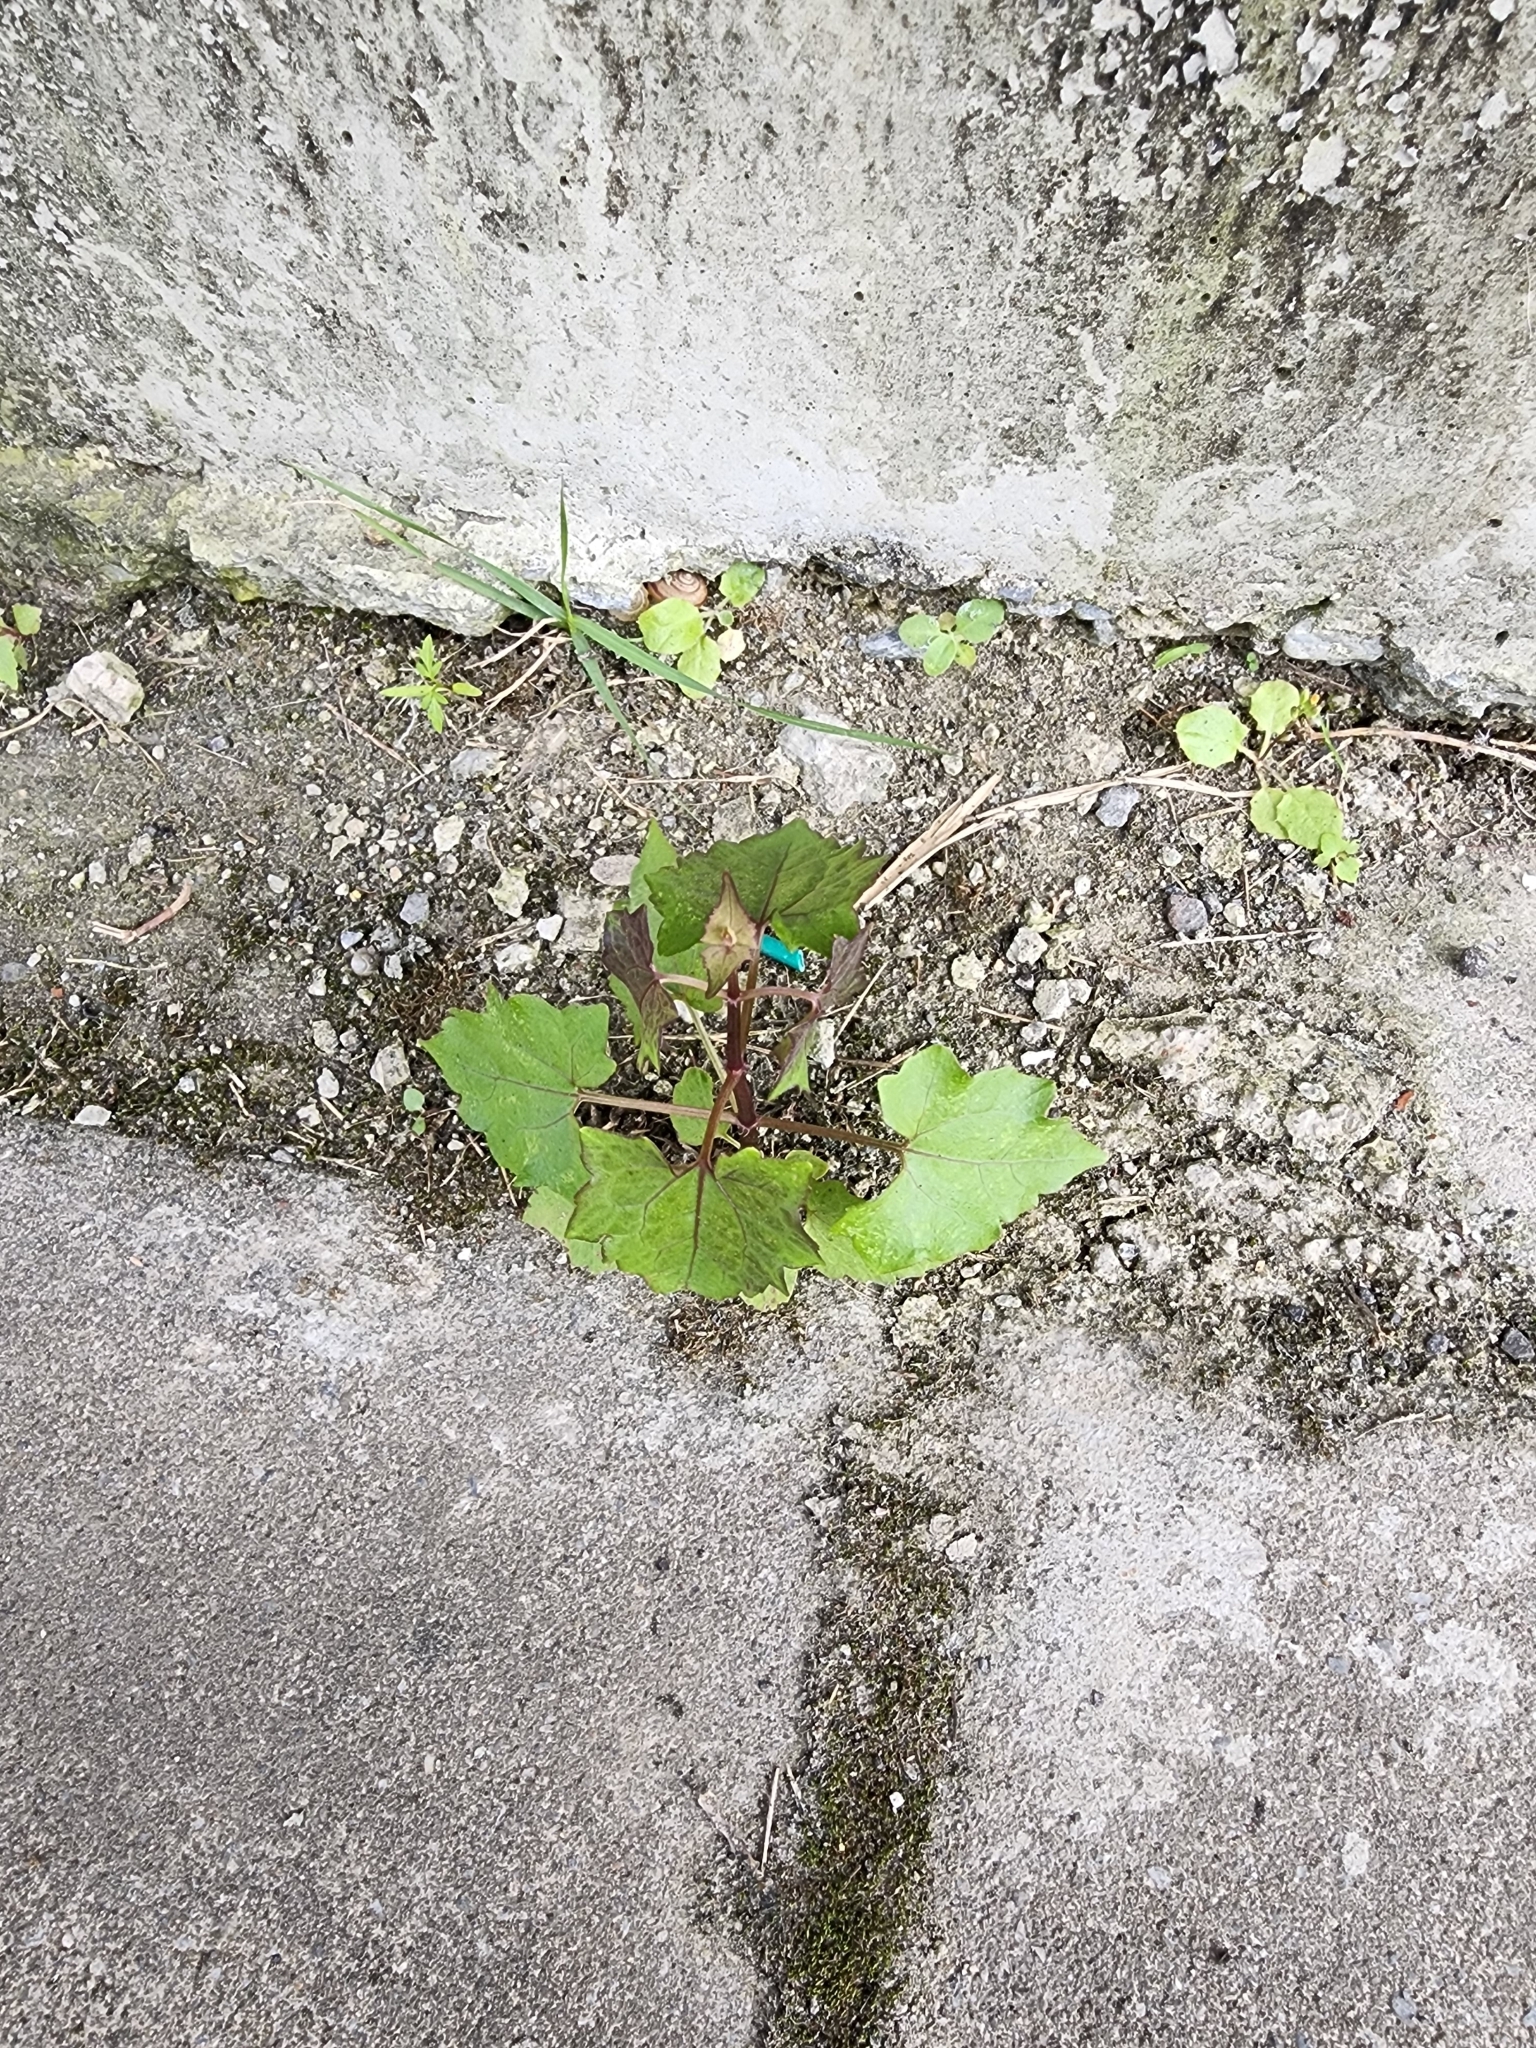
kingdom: Plantae
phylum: Tracheophyta
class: Magnoliopsida
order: Asterales
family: Asteraceae
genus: Mikania
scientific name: Mikania micrantha
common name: Mile-a-minute
